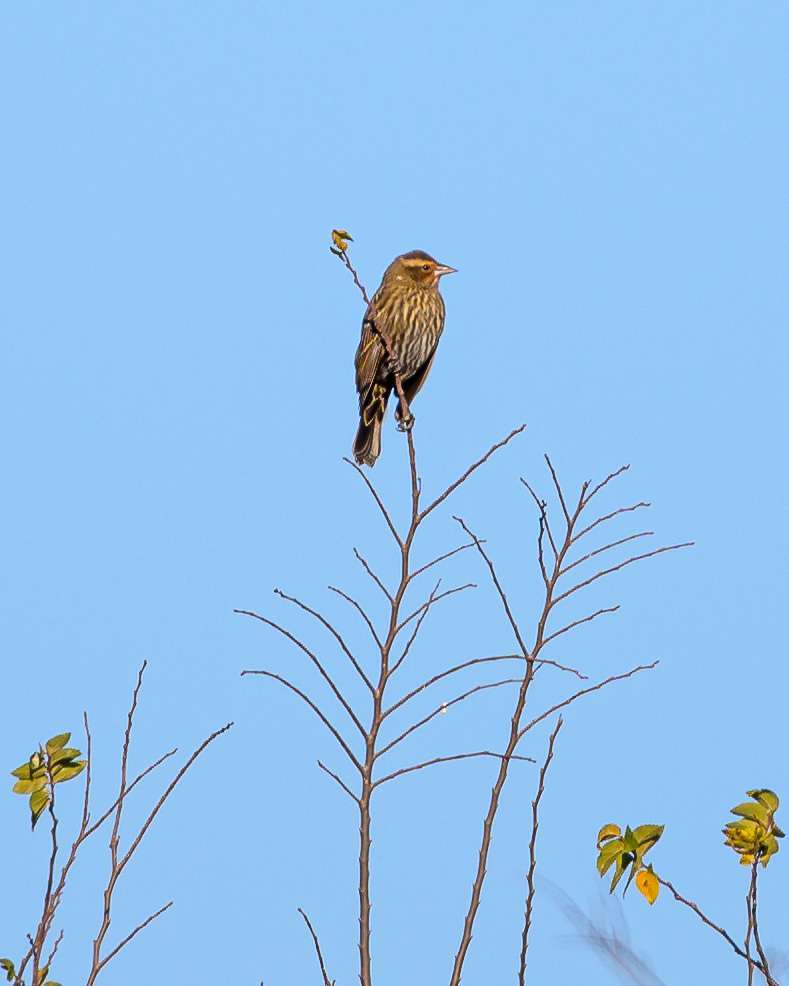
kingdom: Animalia
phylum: Chordata
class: Aves
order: Passeriformes
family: Icteridae
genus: Agelaius
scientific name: Agelaius phoeniceus
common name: Red-winged blackbird
